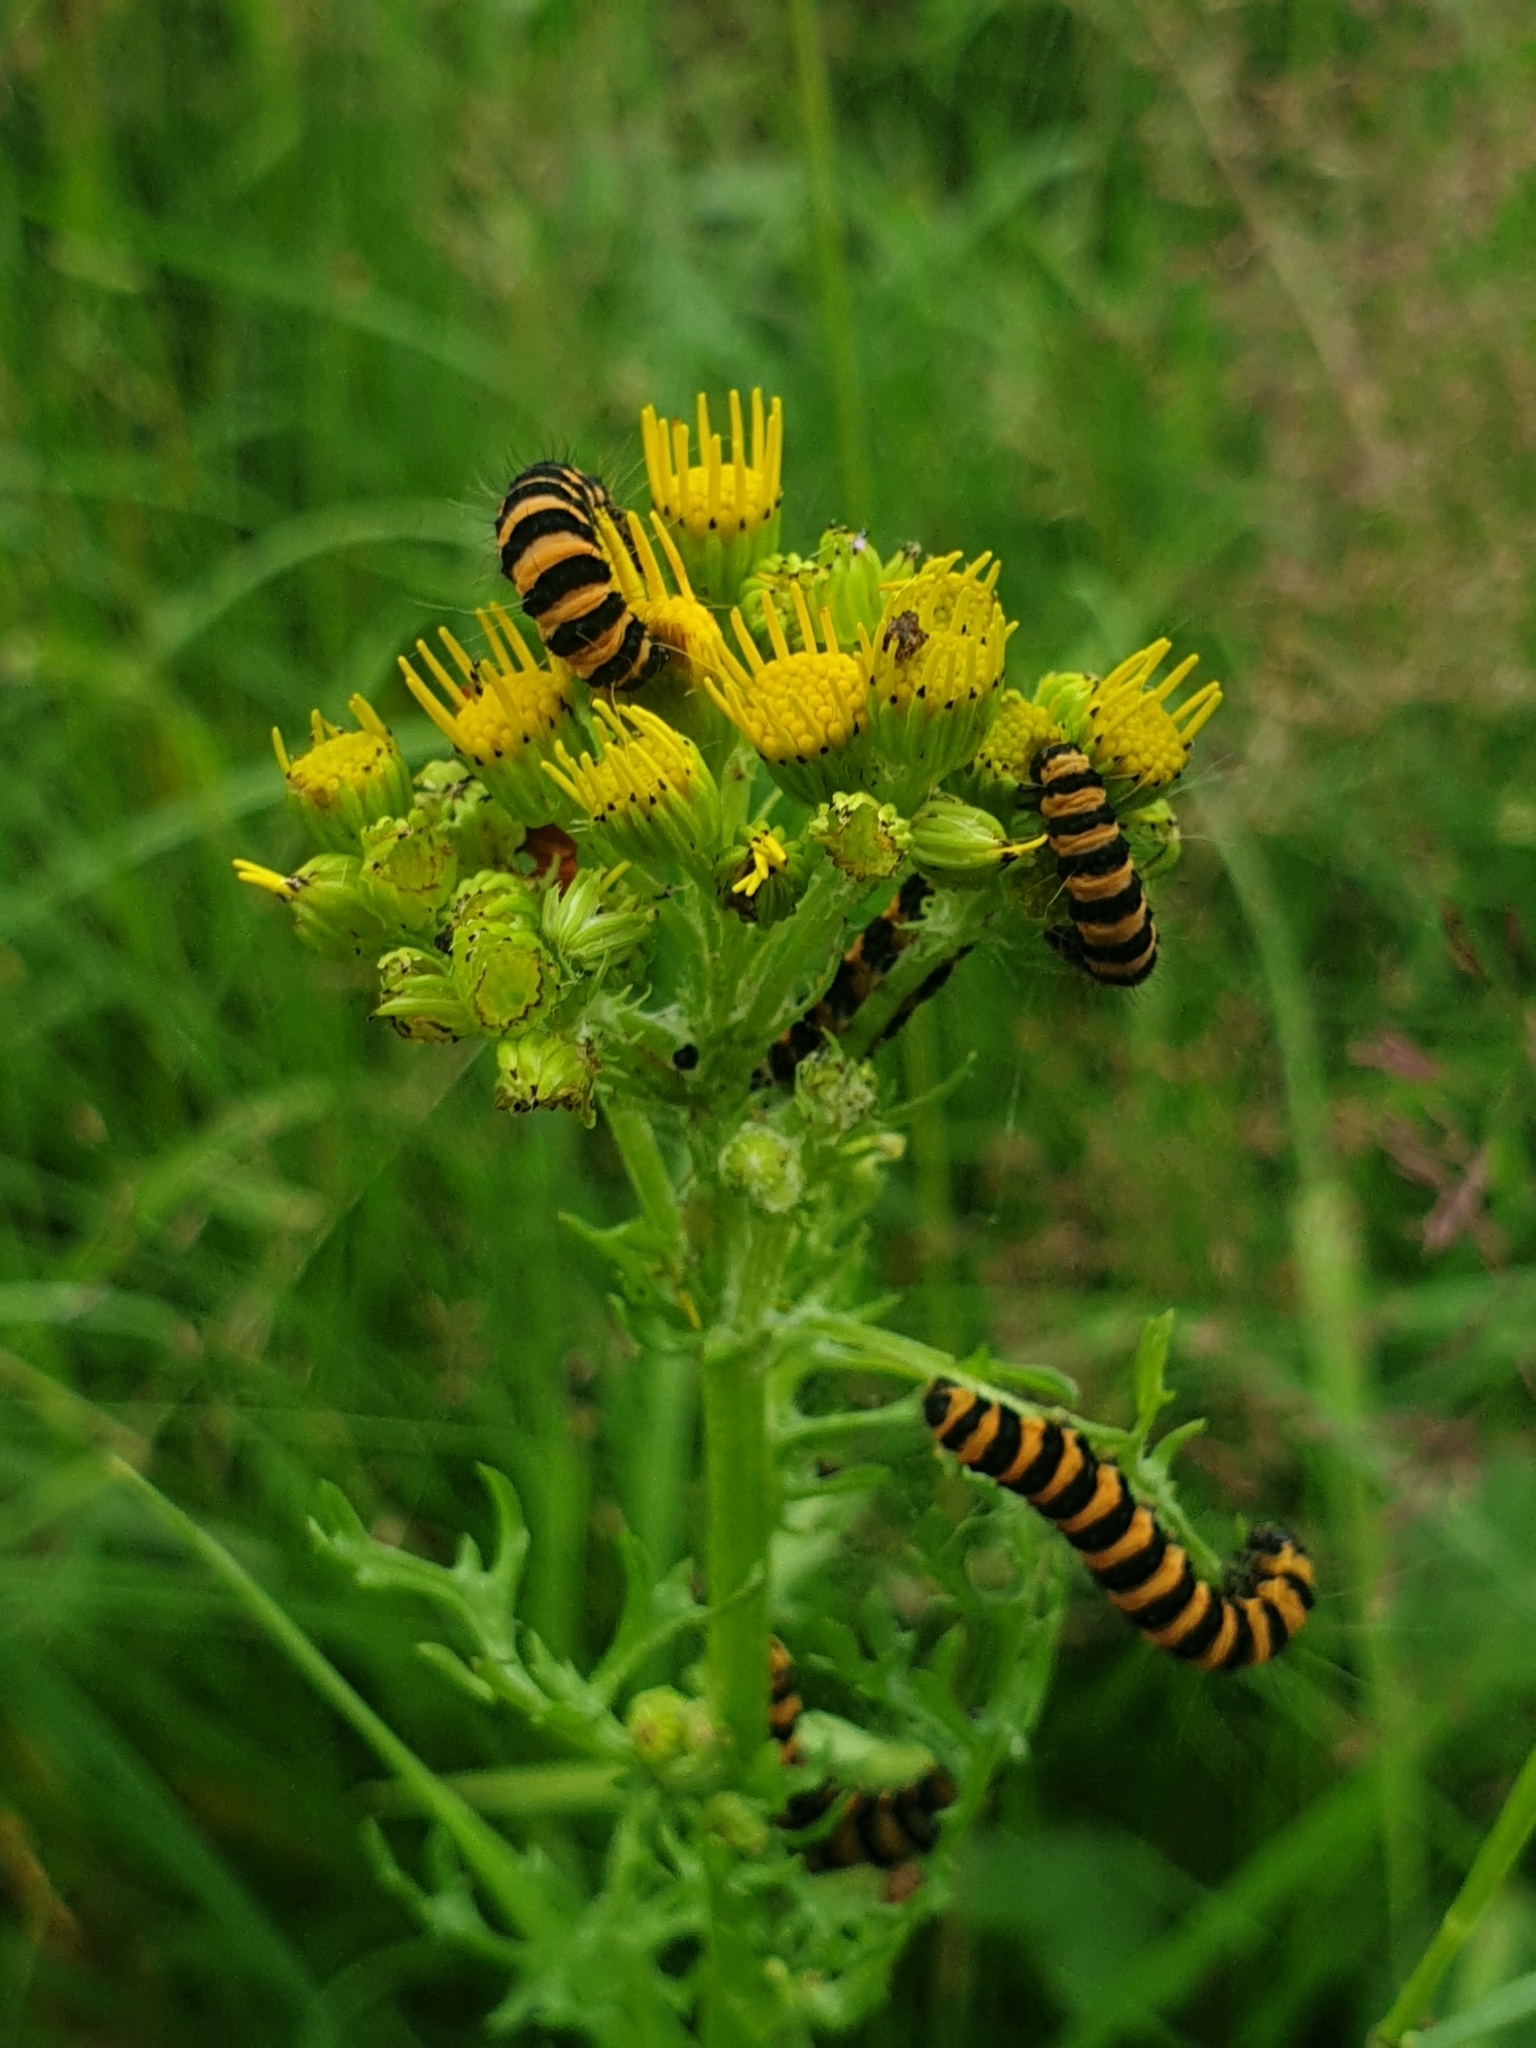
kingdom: Animalia
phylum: Arthropoda
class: Insecta
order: Lepidoptera
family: Erebidae
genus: Tyria
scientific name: Tyria jacobaeae
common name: Cinnabar
